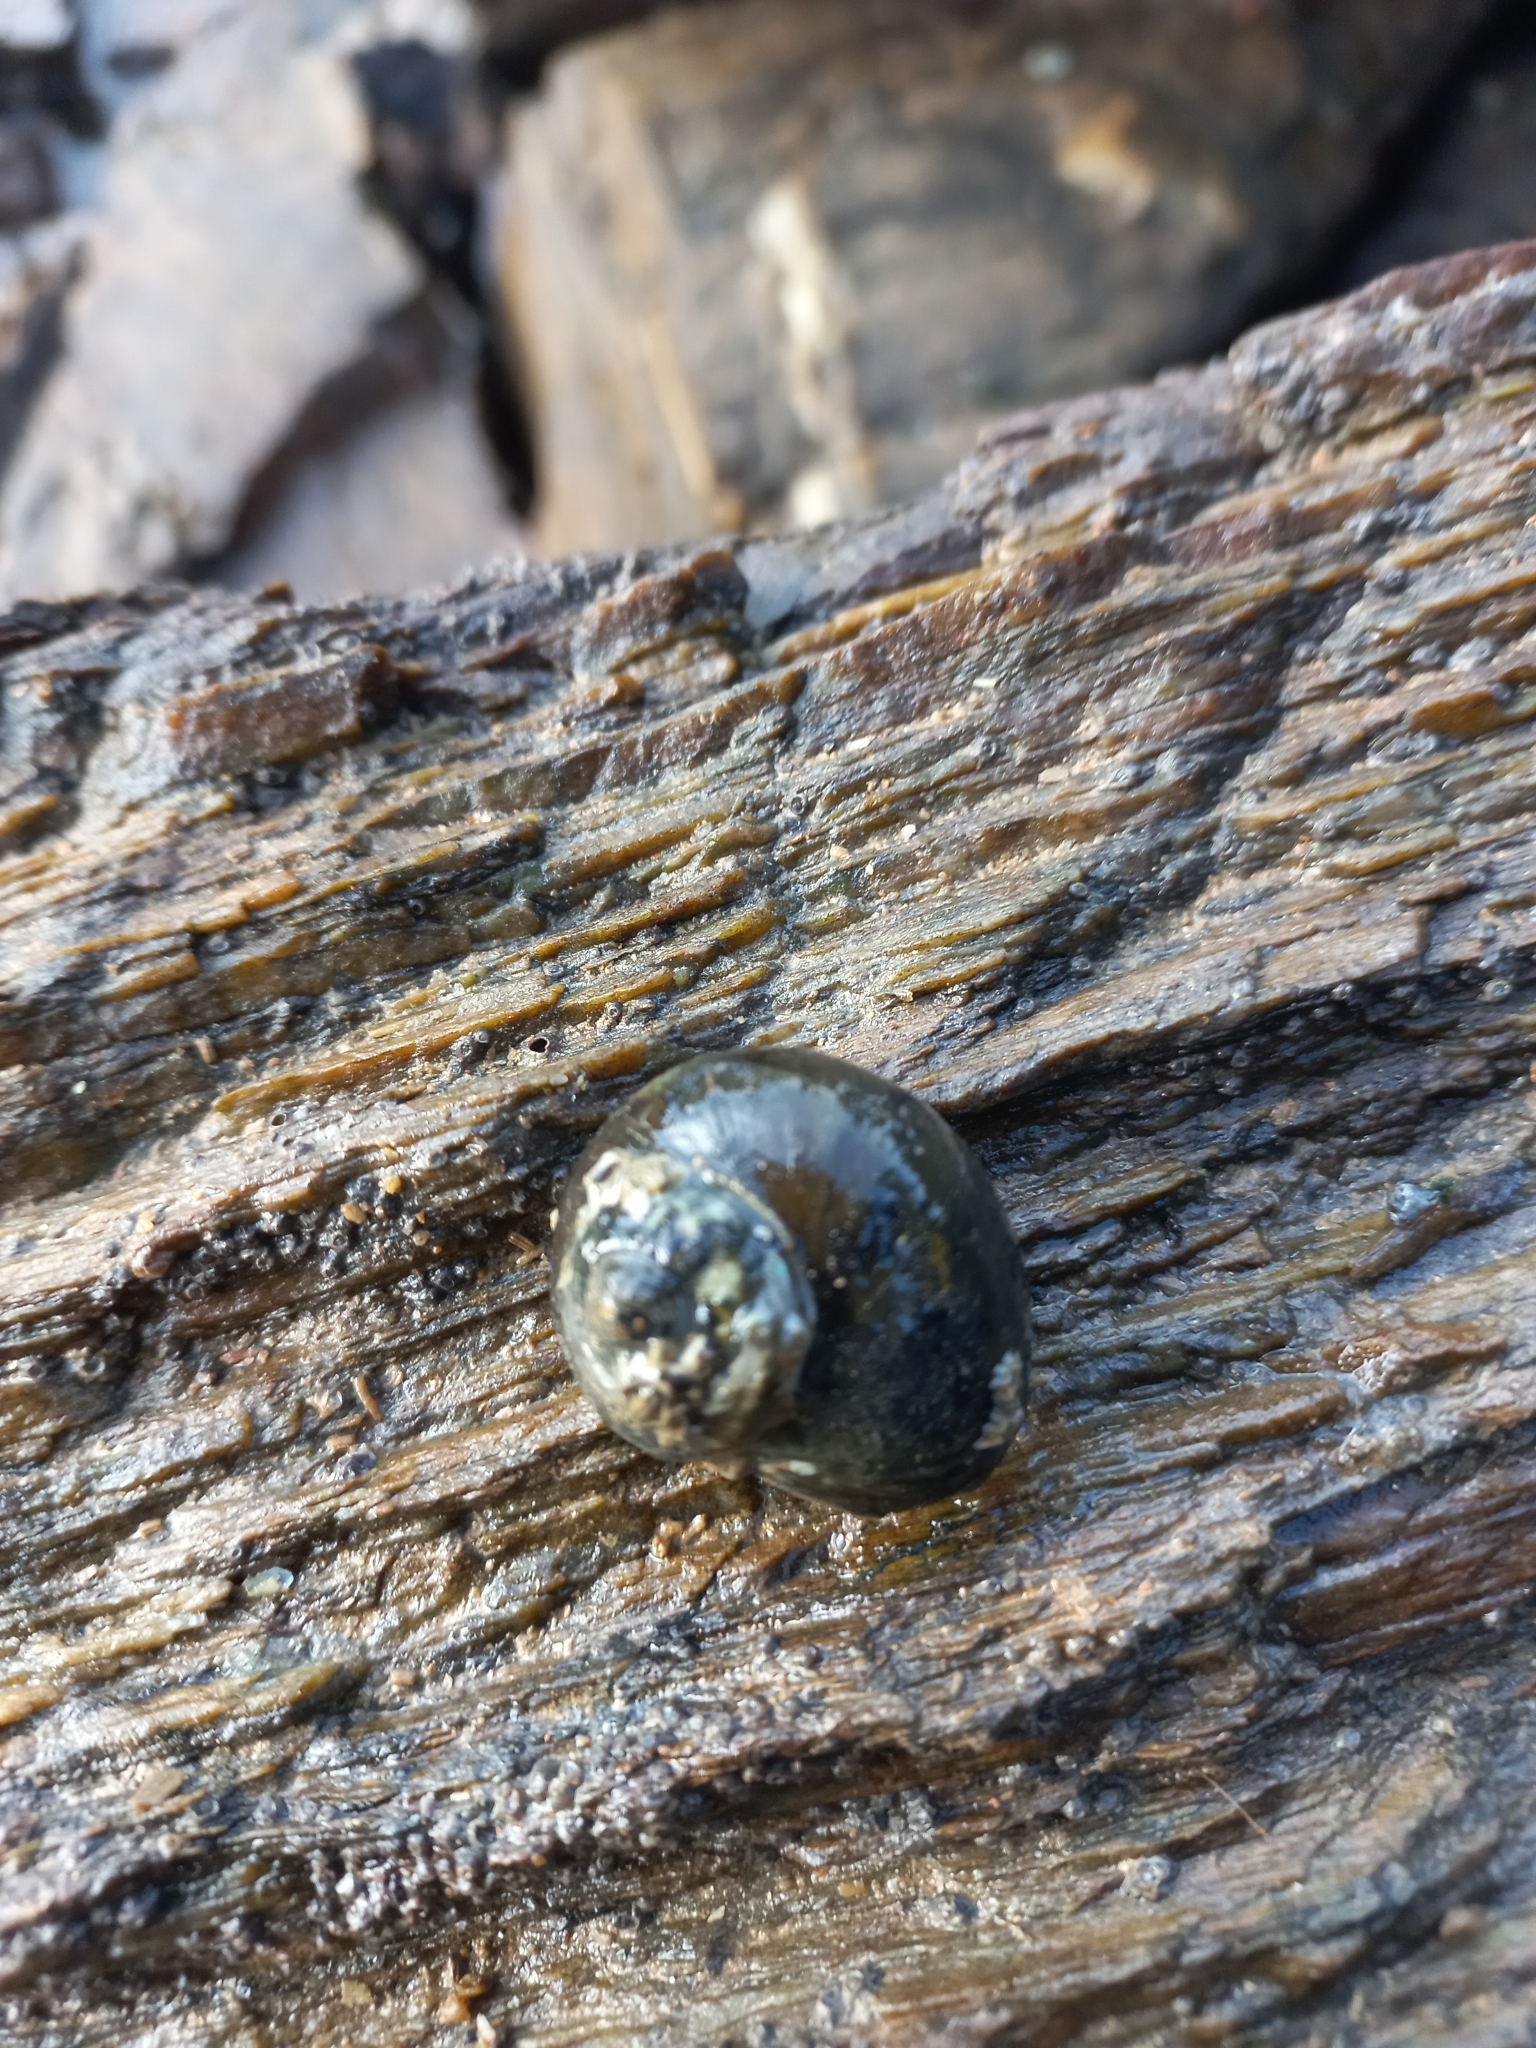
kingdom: Animalia
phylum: Mollusca
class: Gastropoda
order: Trochida
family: Turbinidae
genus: Lunella
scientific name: Lunella smaragda
